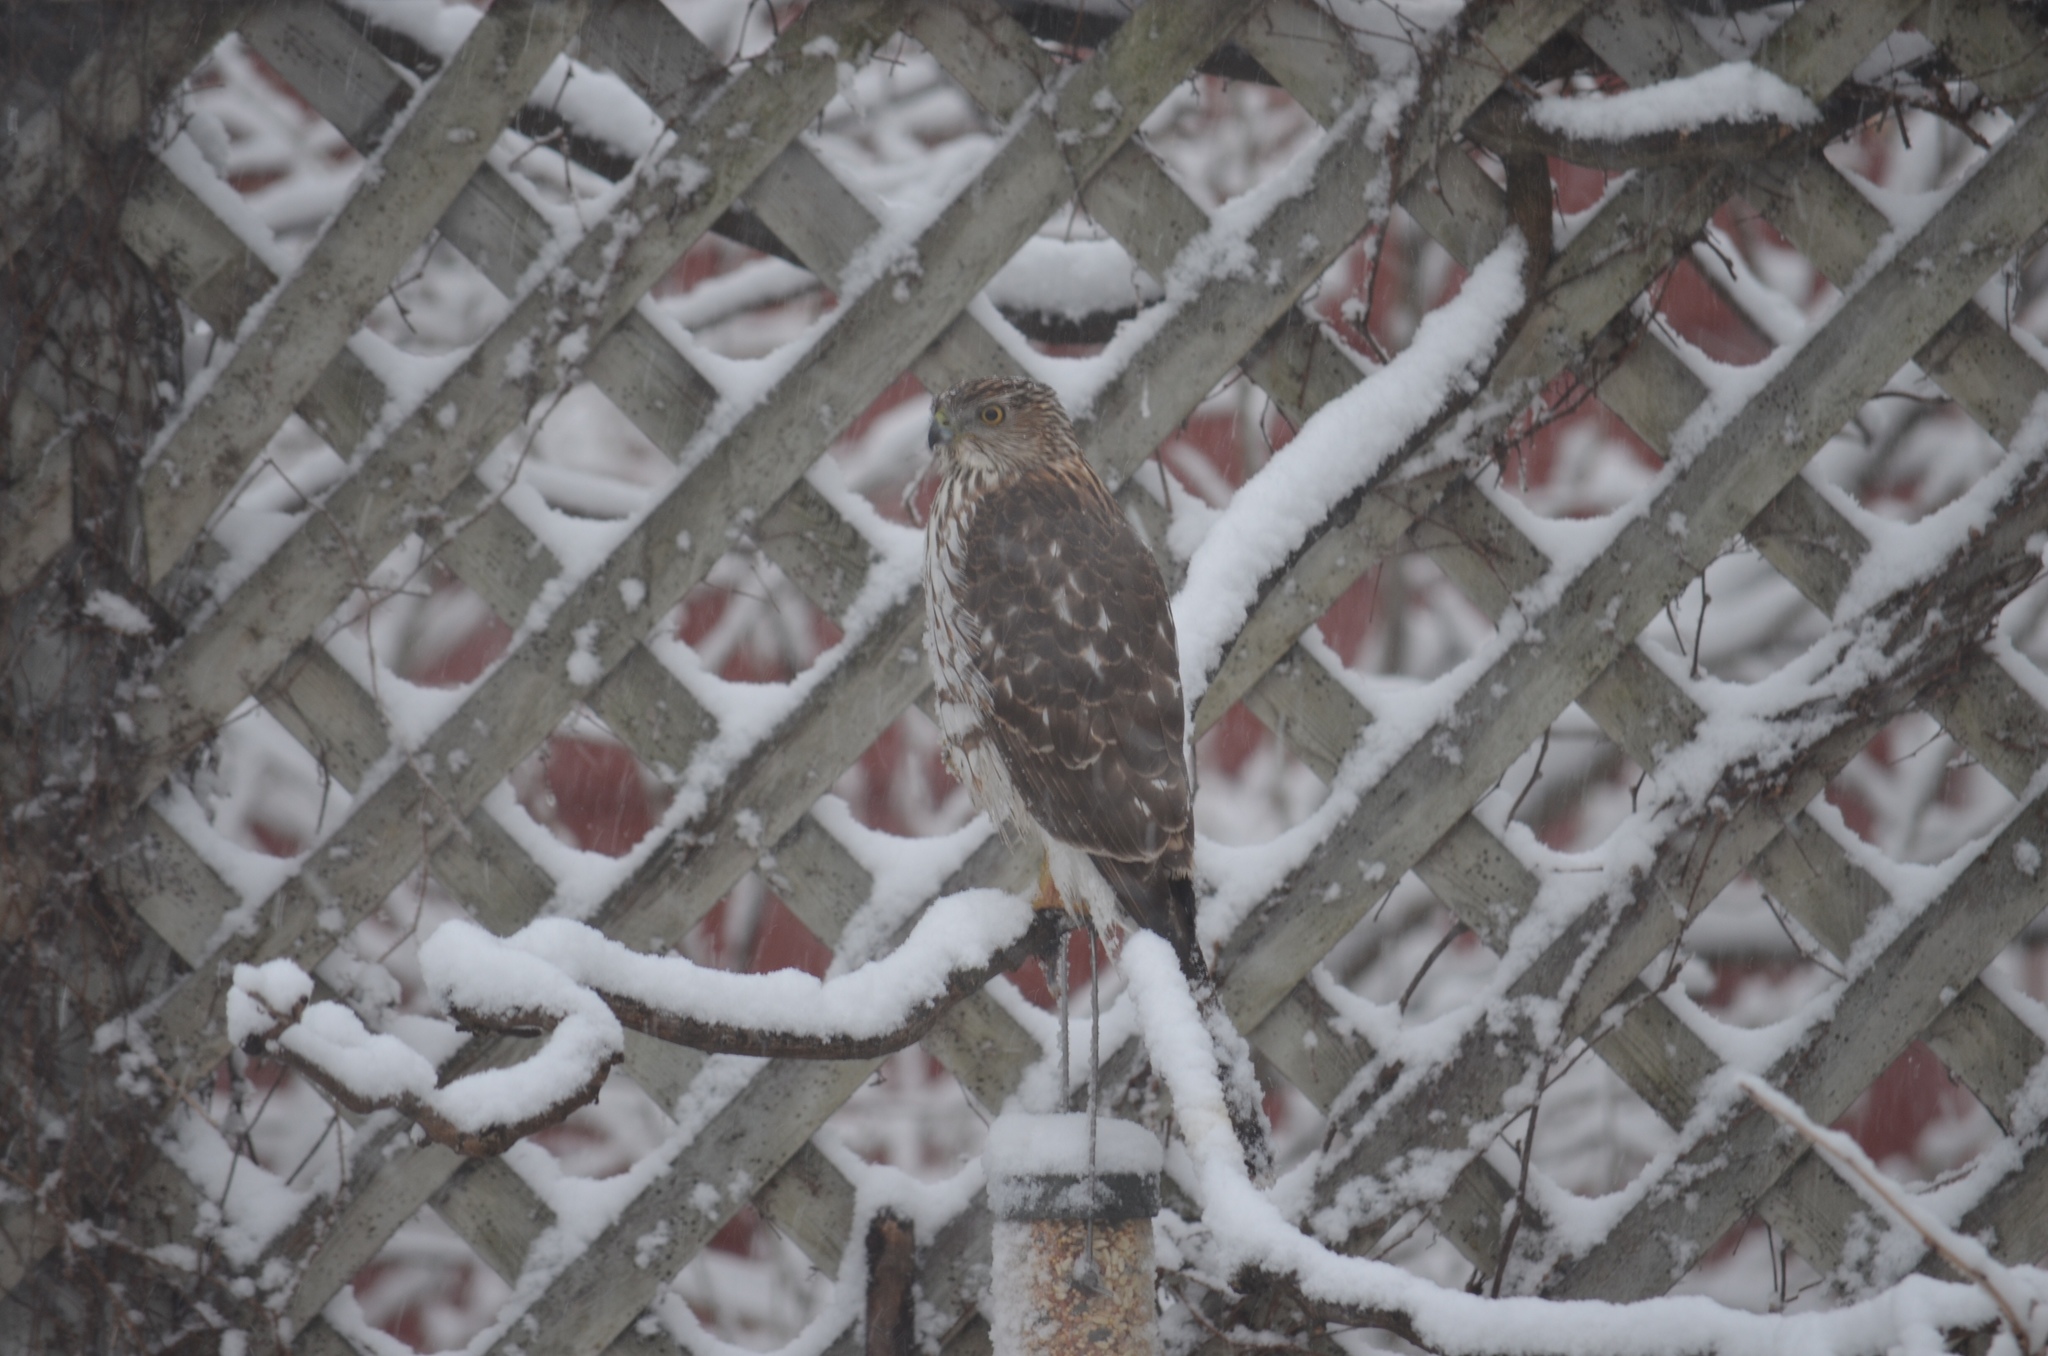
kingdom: Animalia
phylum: Chordata
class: Aves
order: Accipitriformes
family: Accipitridae
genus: Accipiter
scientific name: Accipiter cooperii
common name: Cooper's hawk
